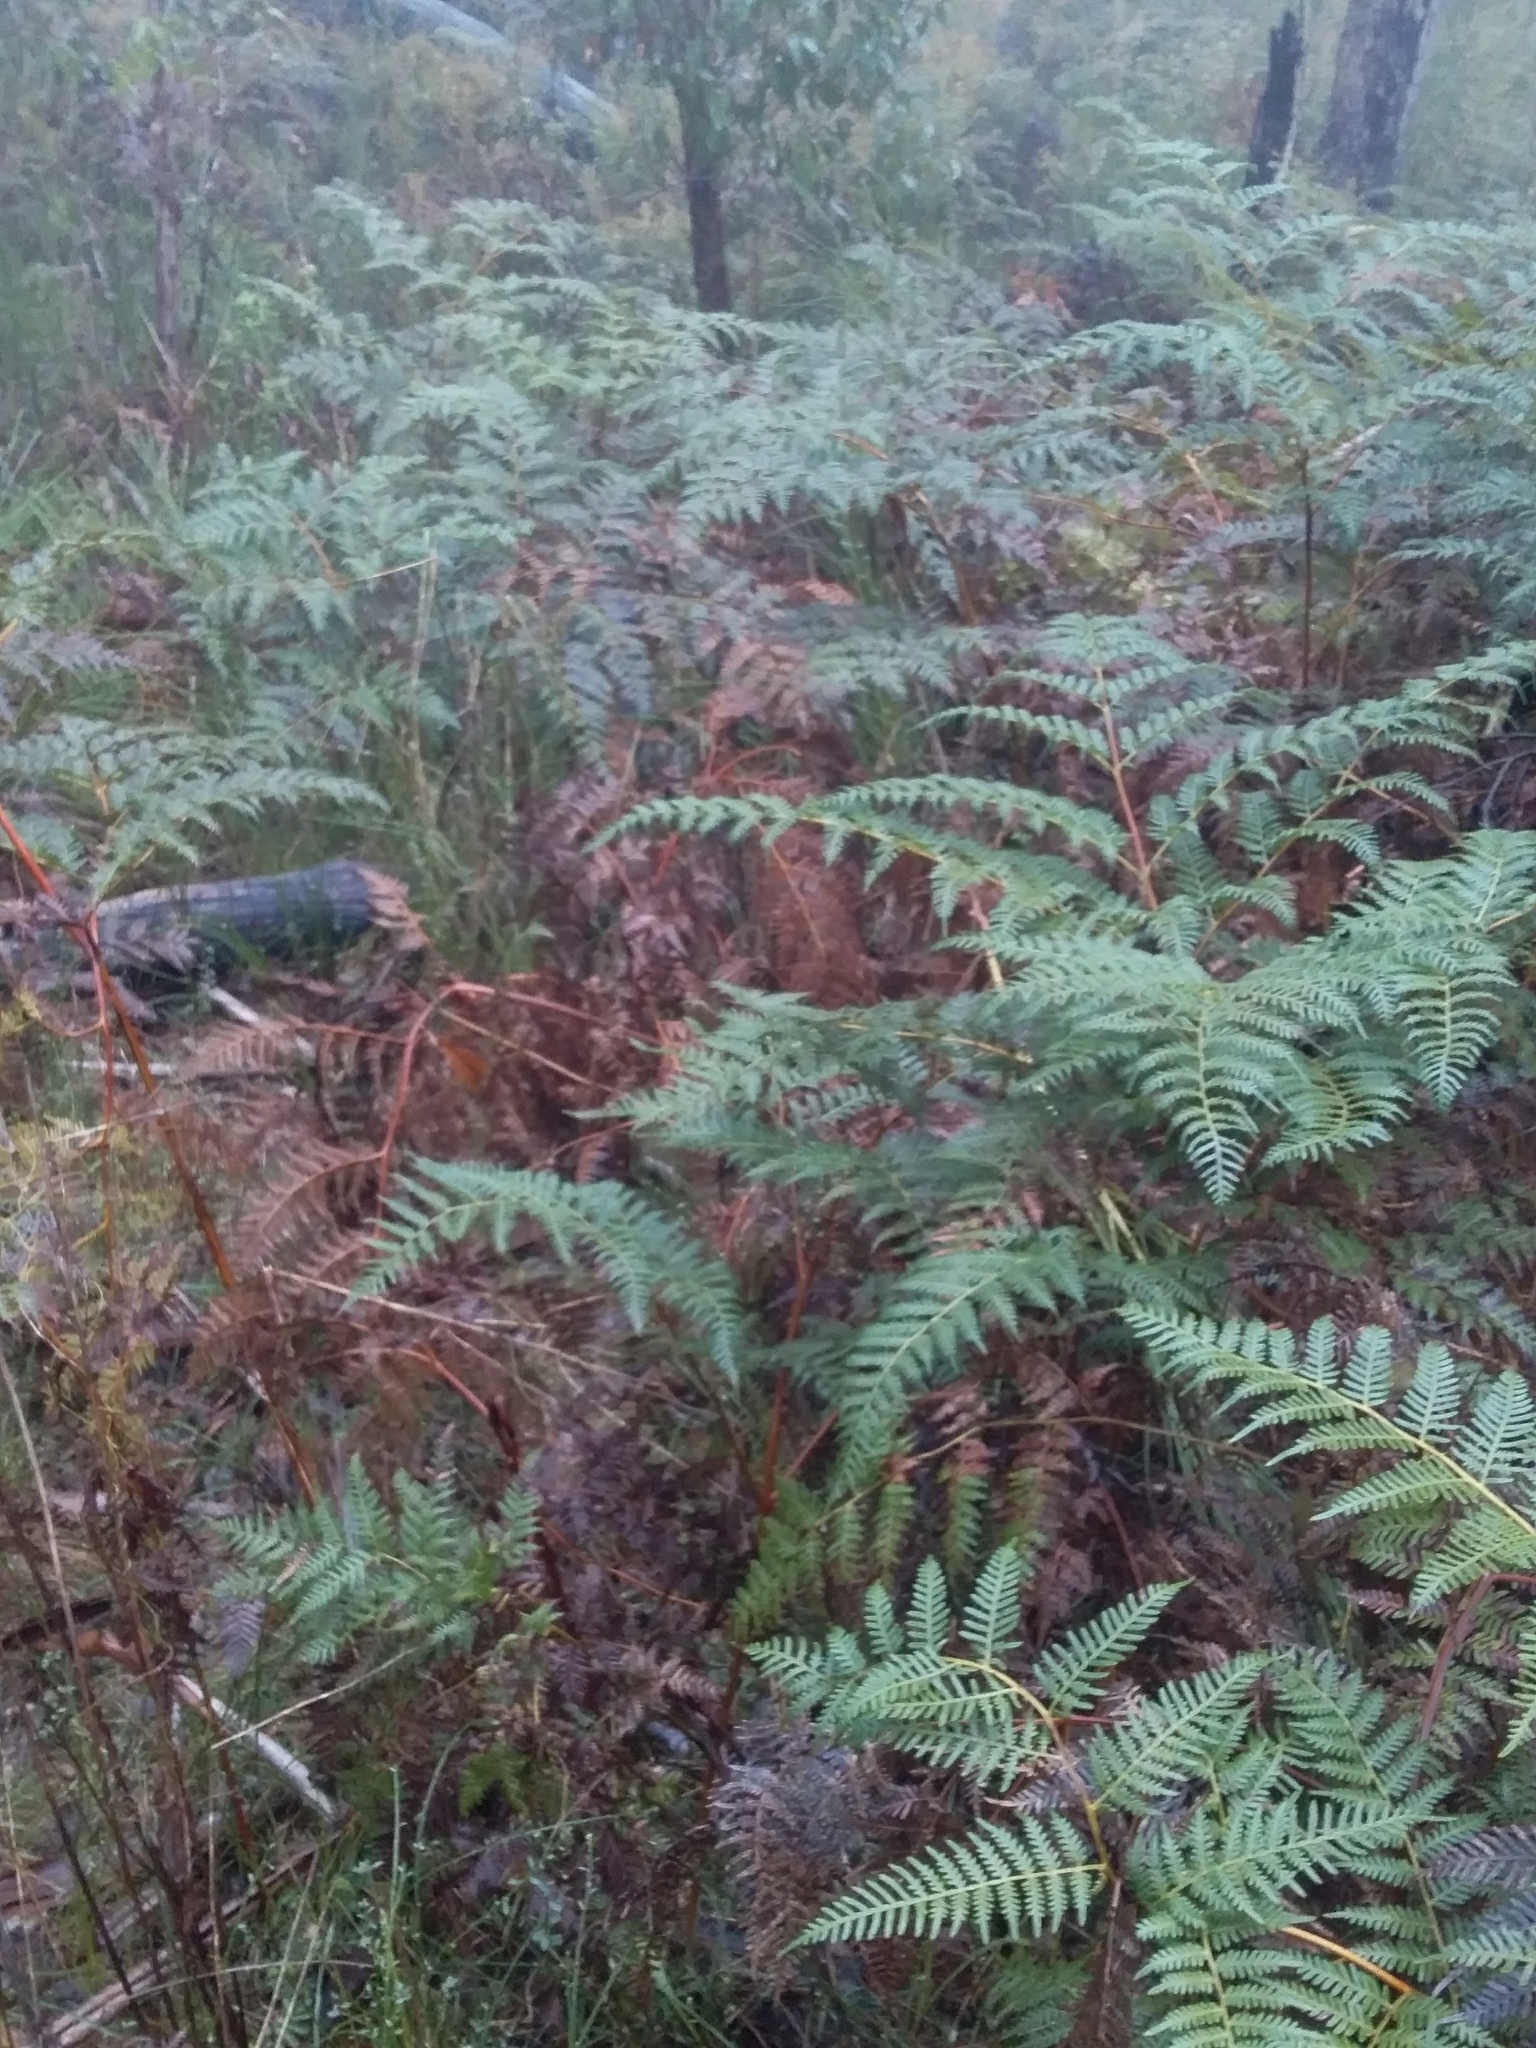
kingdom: Plantae
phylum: Tracheophyta
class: Polypodiopsida
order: Polypodiales
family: Dennstaedtiaceae
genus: Pteridium
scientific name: Pteridium esculentum
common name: Bracken fern
